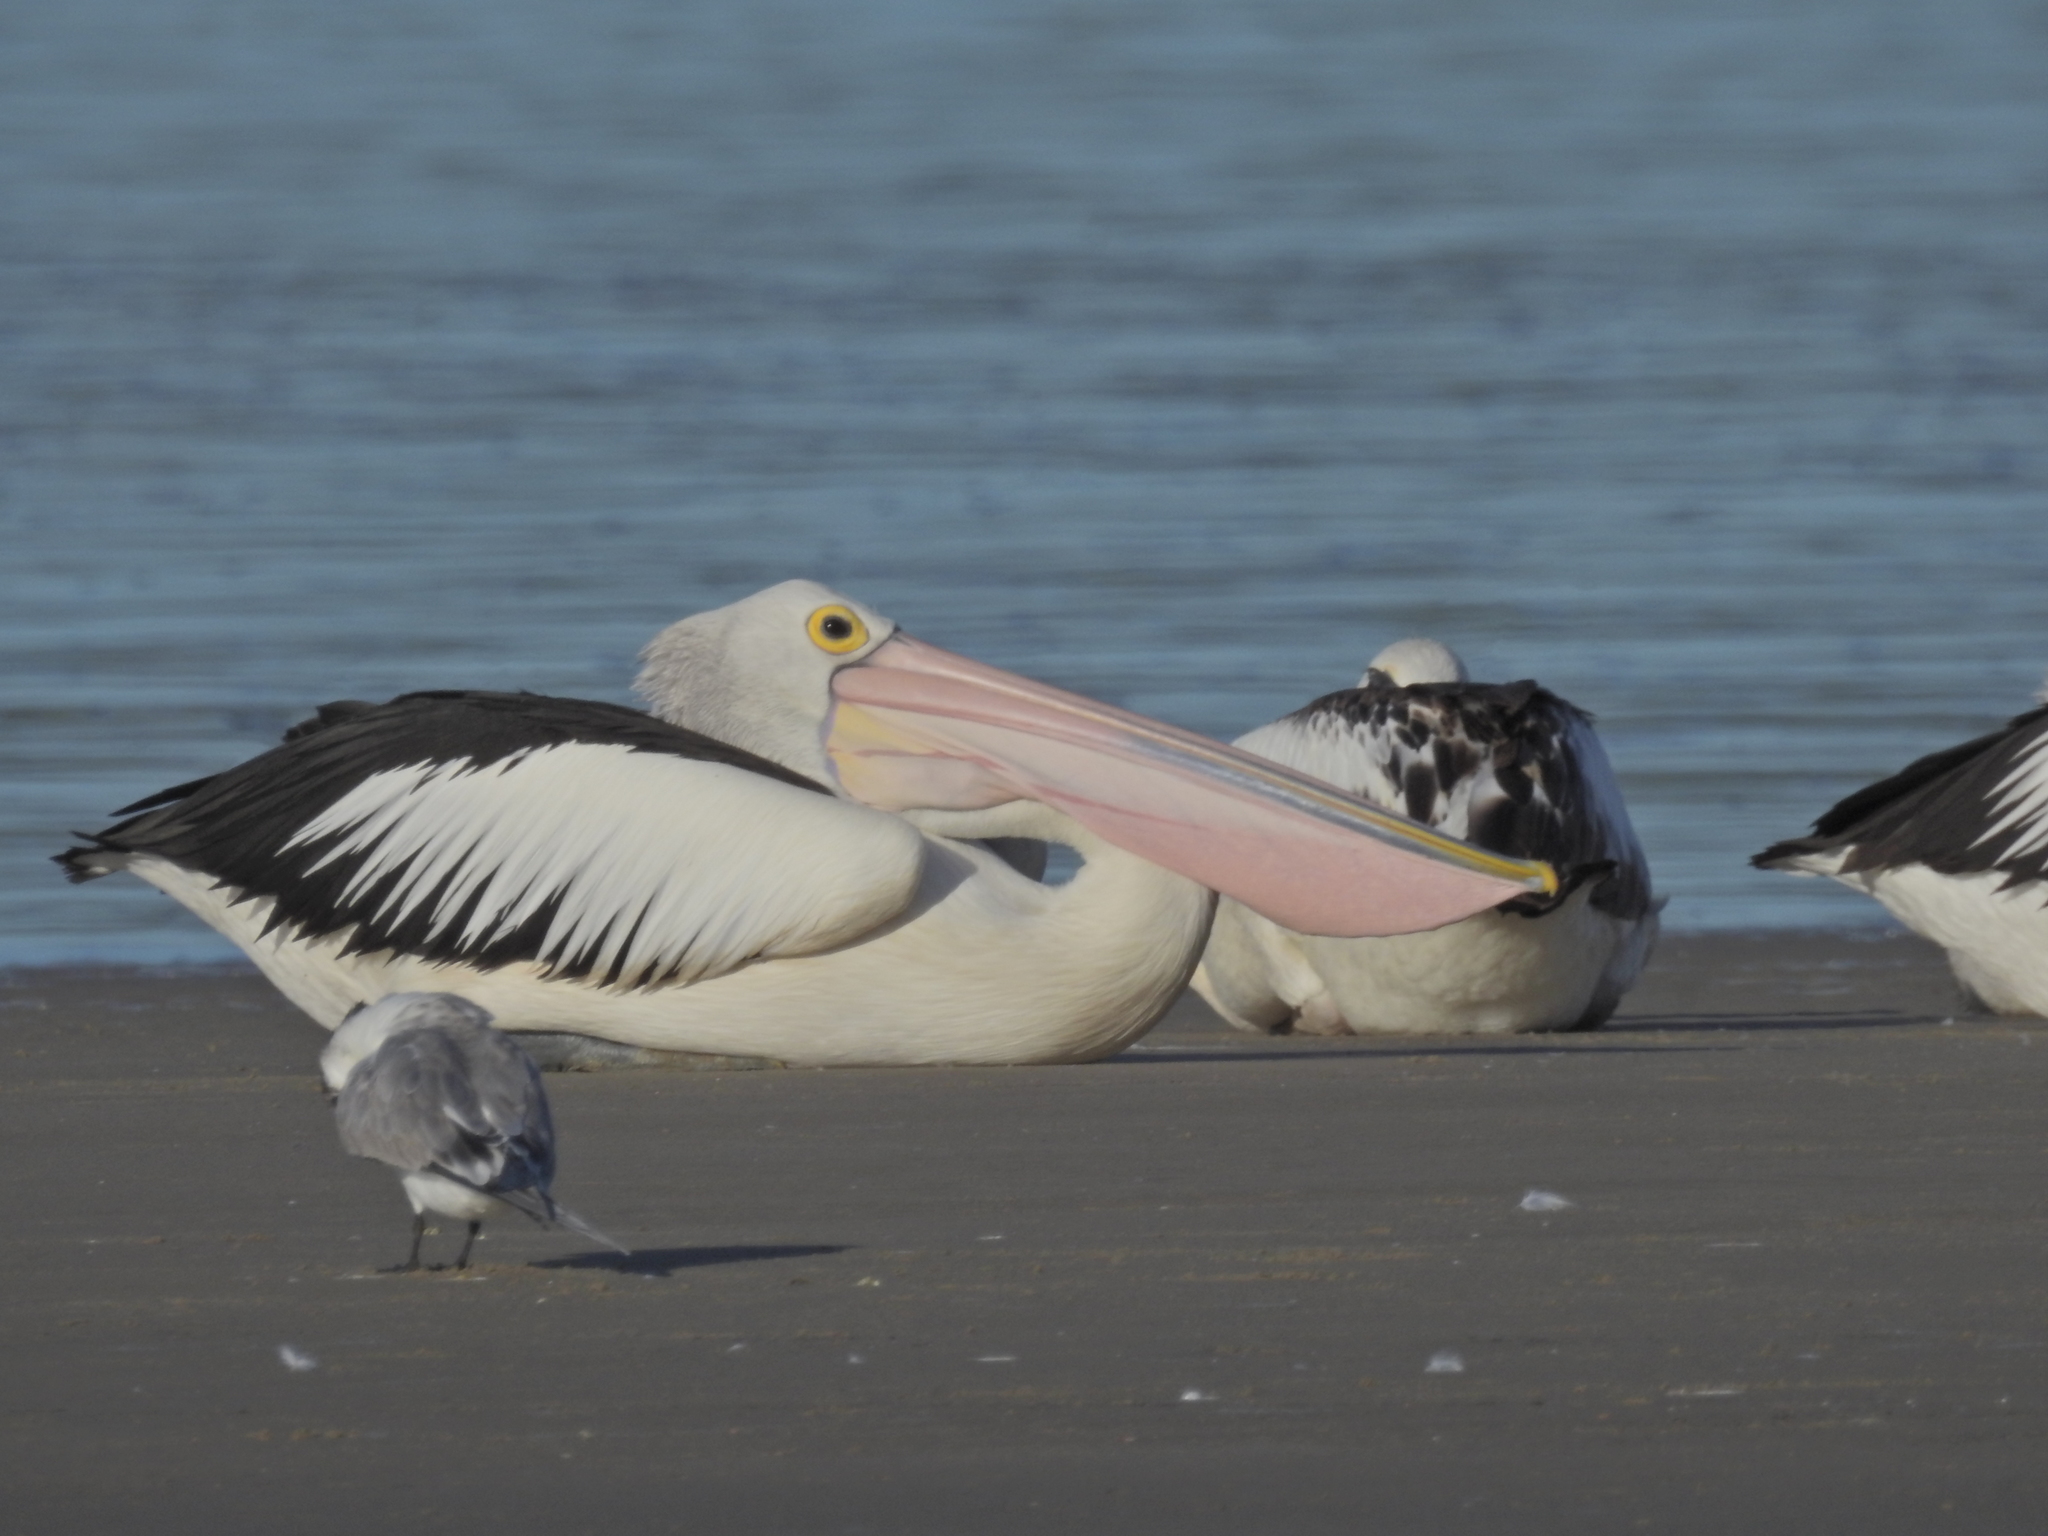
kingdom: Animalia
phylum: Chordata
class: Aves
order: Pelecaniformes
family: Pelecanidae
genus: Pelecanus
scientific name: Pelecanus conspicillatus
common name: Australian pelican
